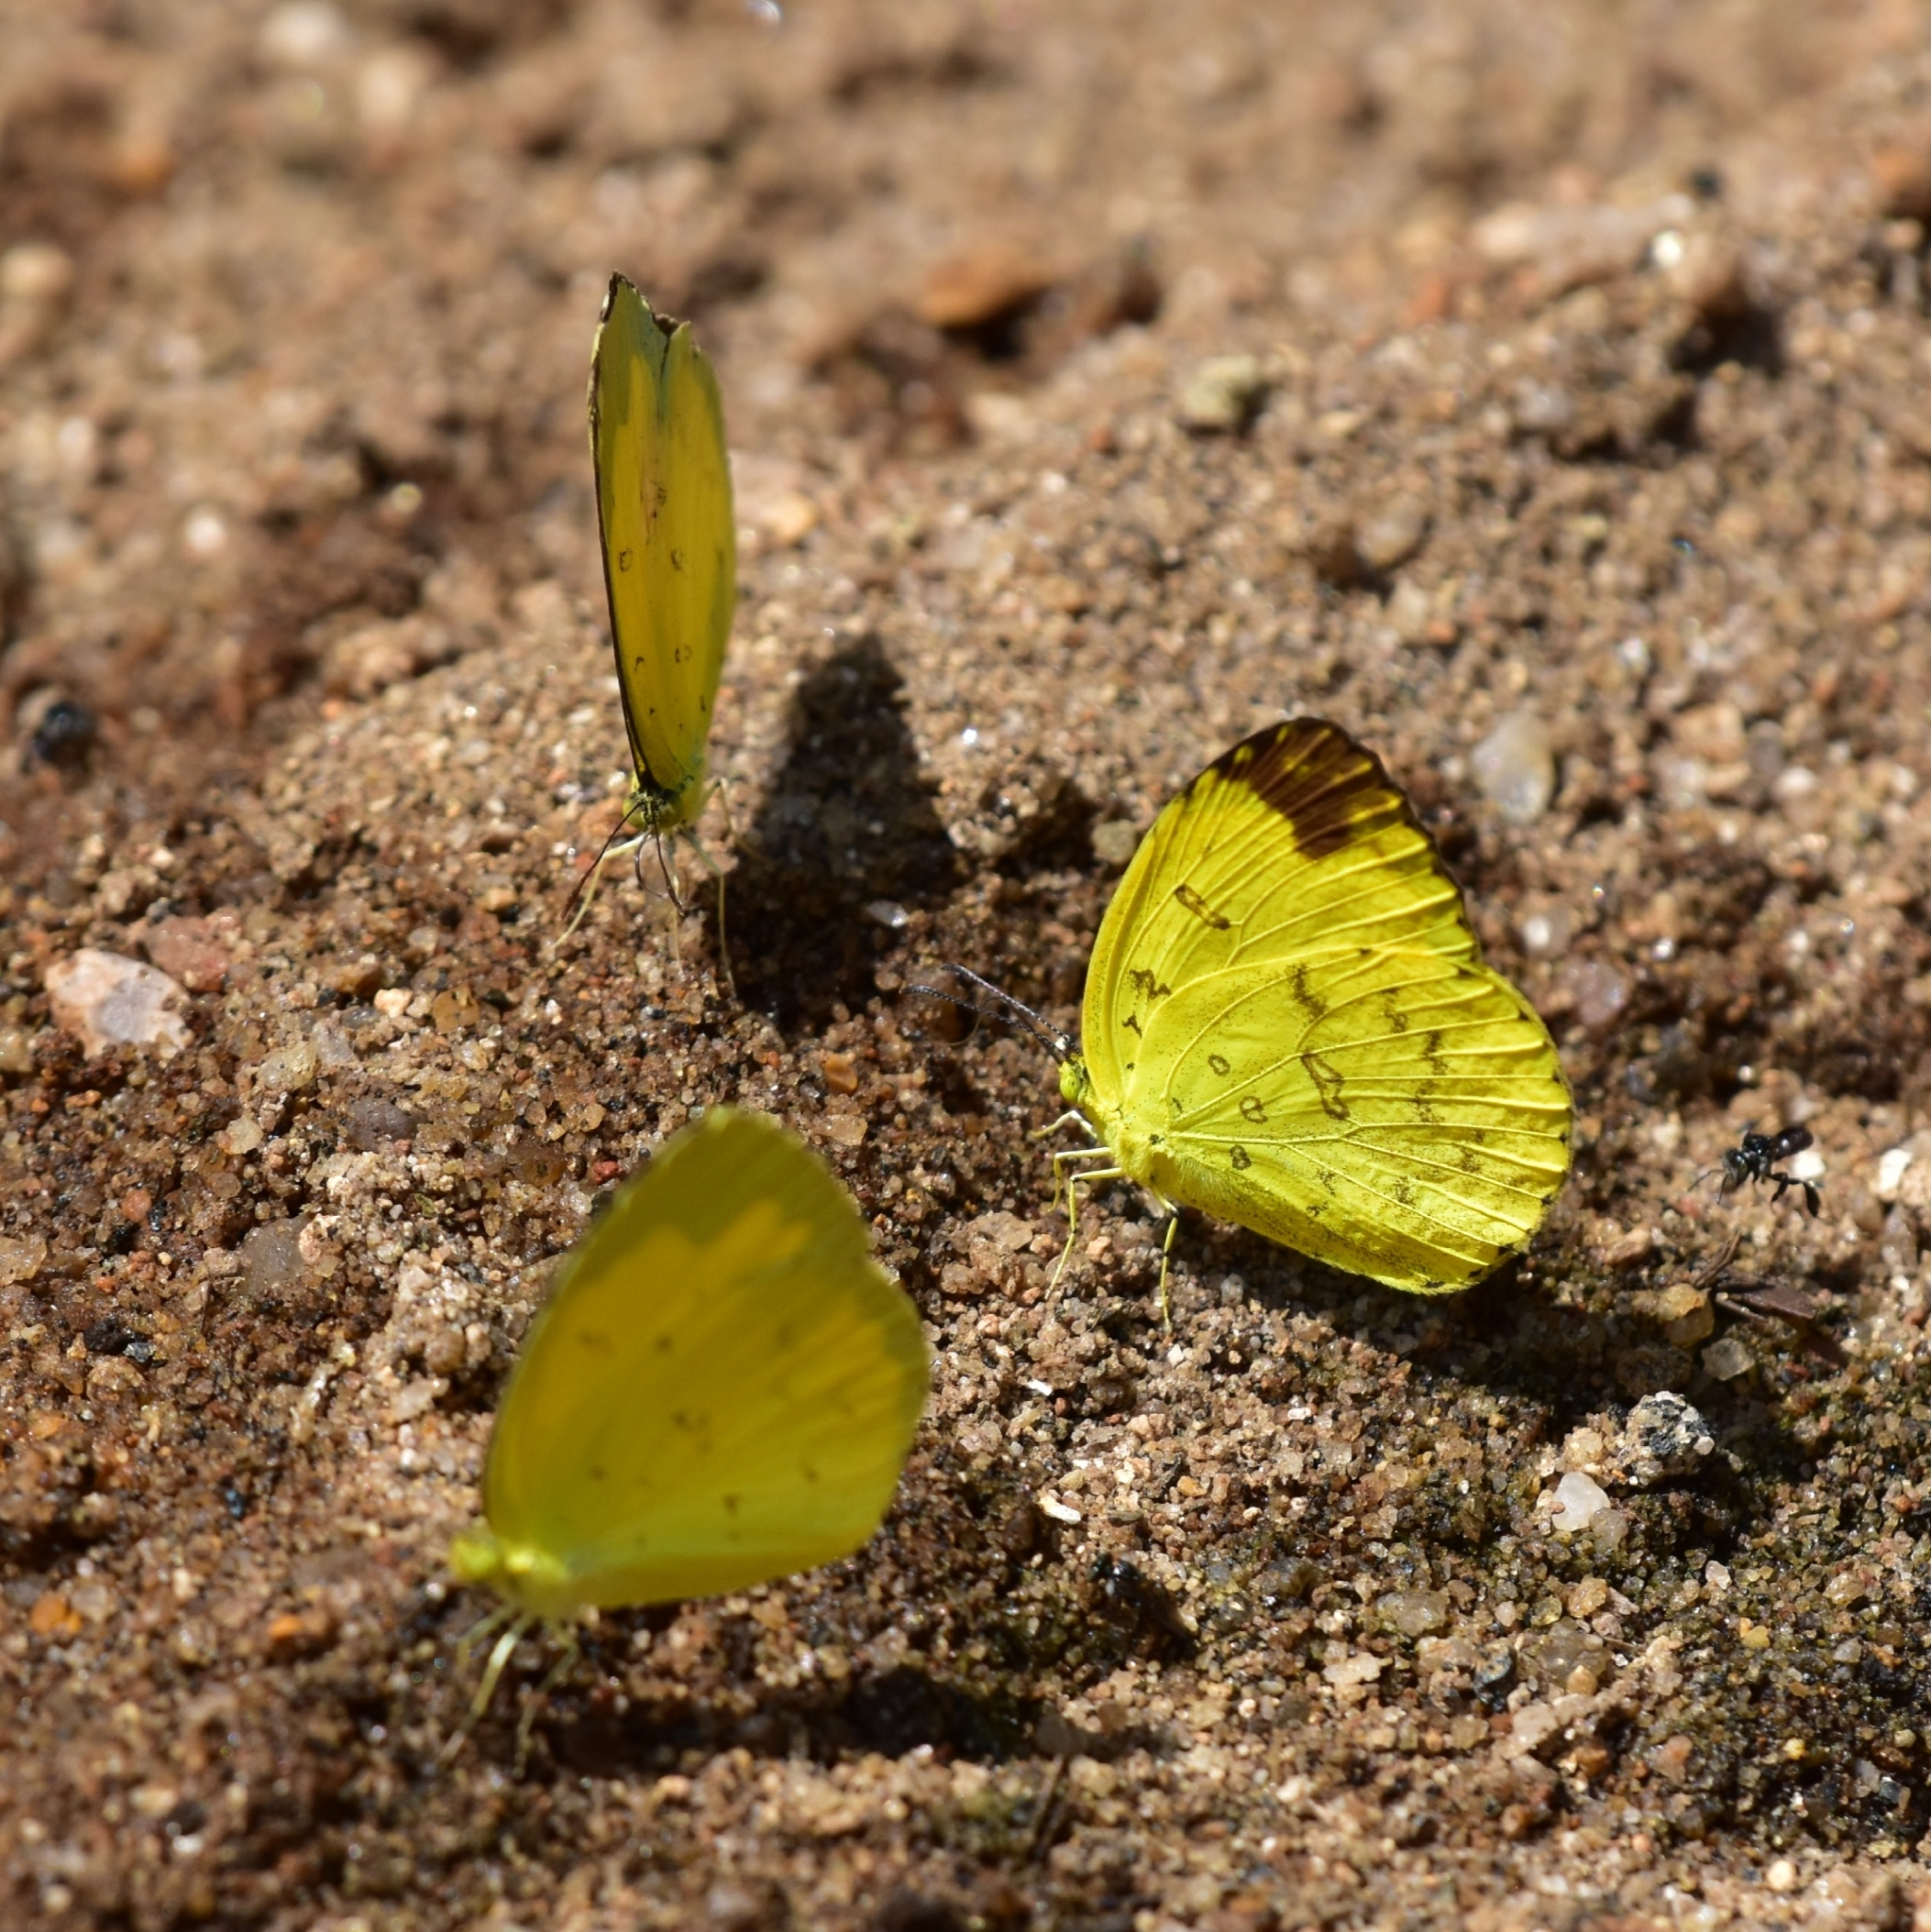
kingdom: Animalia
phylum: Arthropoda
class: Insecta
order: Lepidoptera
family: Pieridae
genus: Eurema
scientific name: Eurema blanda
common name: Three-spot grass yellow
